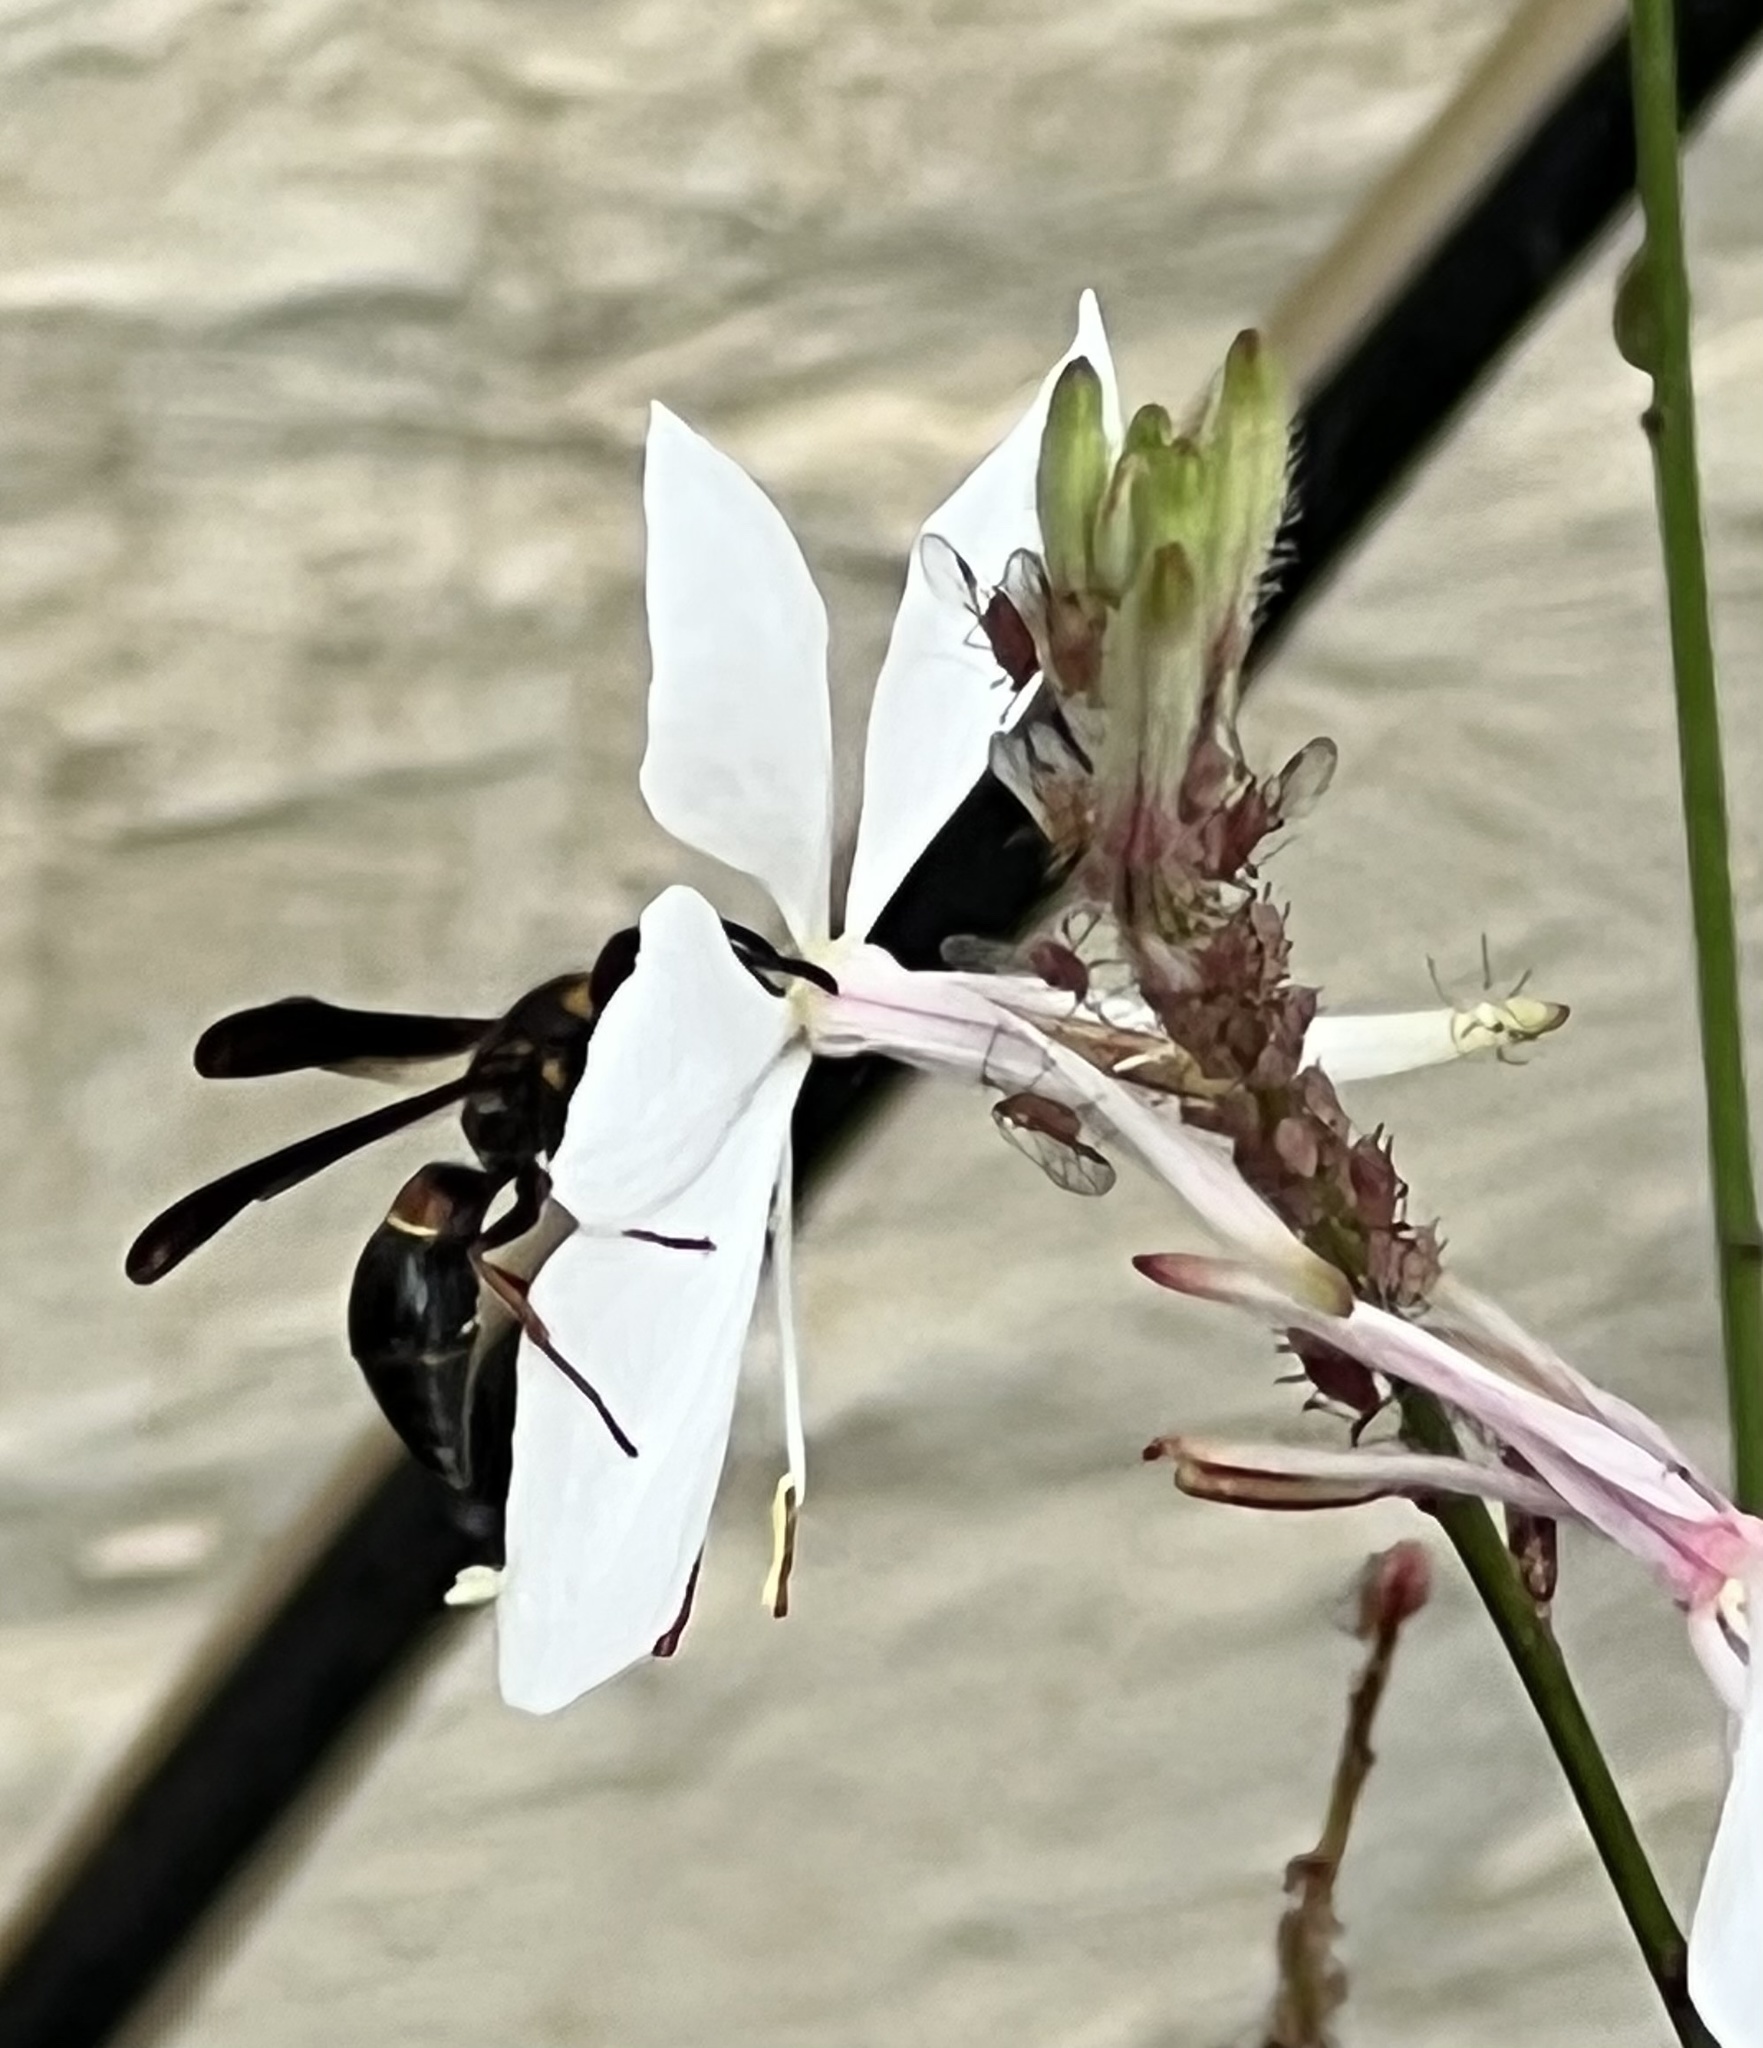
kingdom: Animalia
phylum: Arthropoda
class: Insecta
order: Hymenoptera
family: Eumenidae
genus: Parancistrocerus
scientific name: Parancistrocerus histrio
